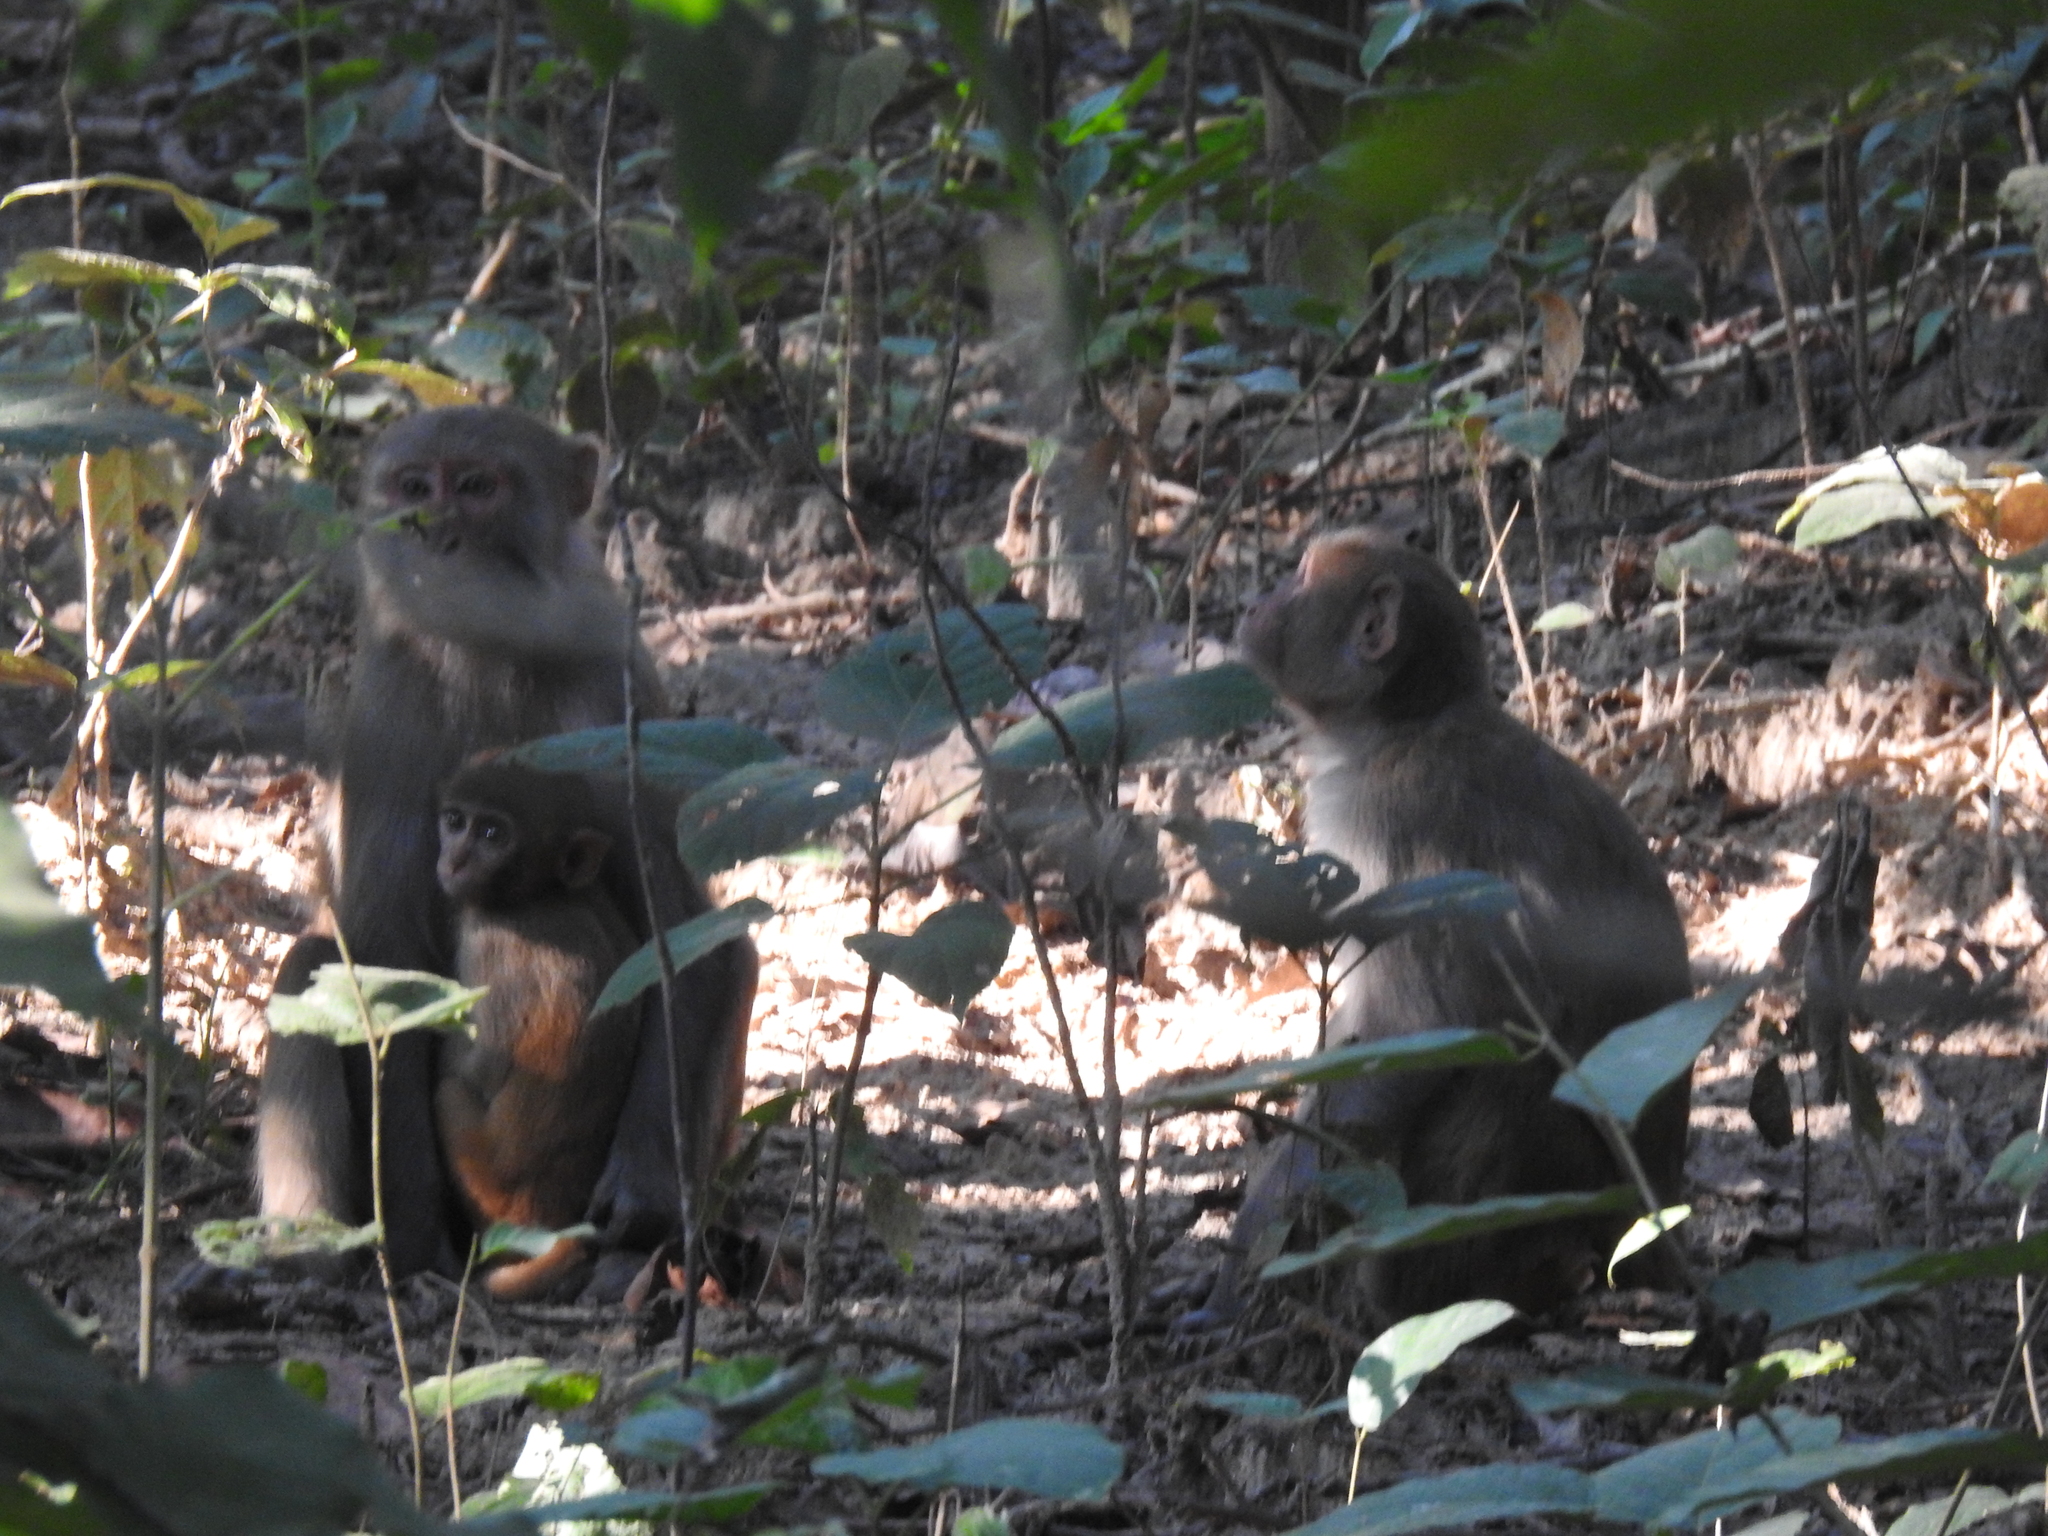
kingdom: Animalia
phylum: Chordata
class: Mammalia
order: Primates
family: Cercopithecidae
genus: Macaca
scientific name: Macaca mulatta
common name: Rhesus monkey
